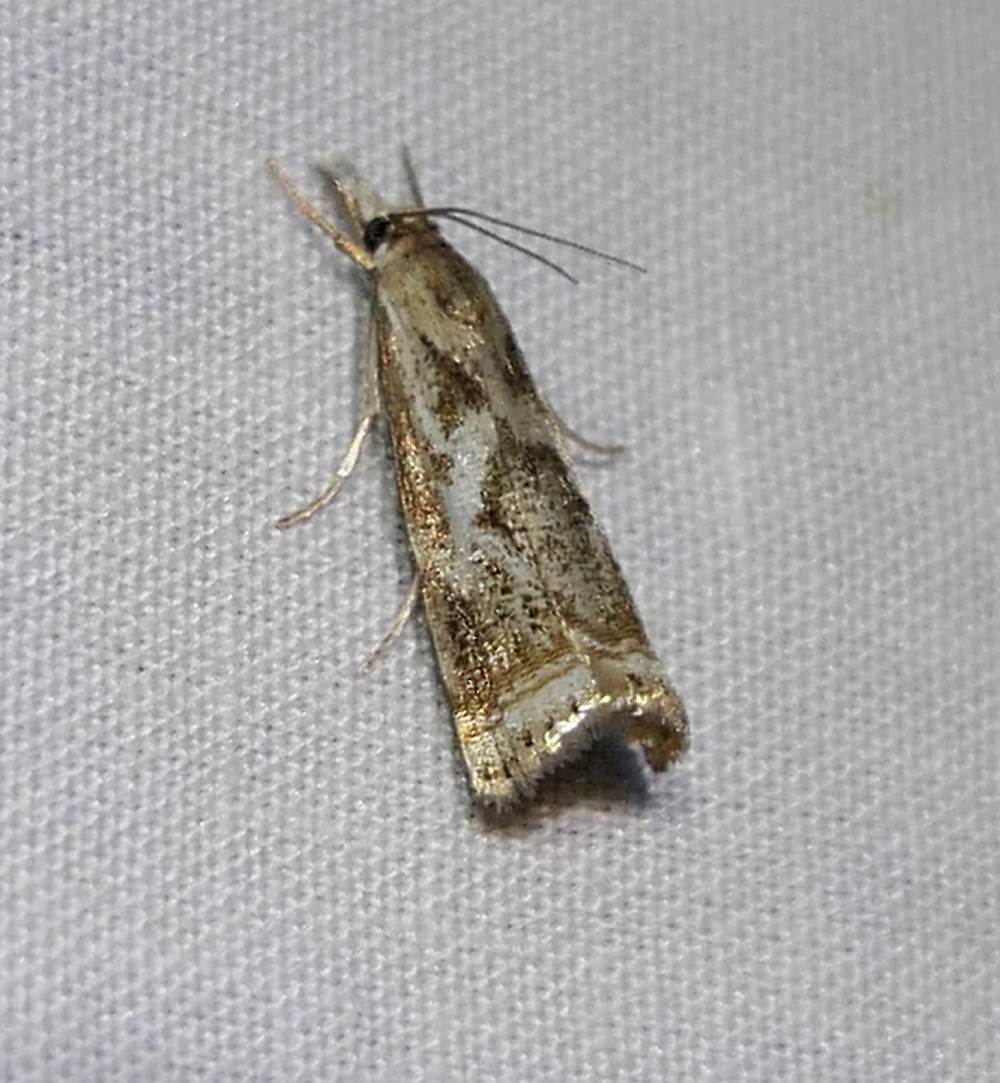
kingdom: Animalia
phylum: Arthropoda
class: Insecta
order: Lepidoptera
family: Crambidae
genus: Microcrambus
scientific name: Microcrambus elegans
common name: Elegant grass-veneer
